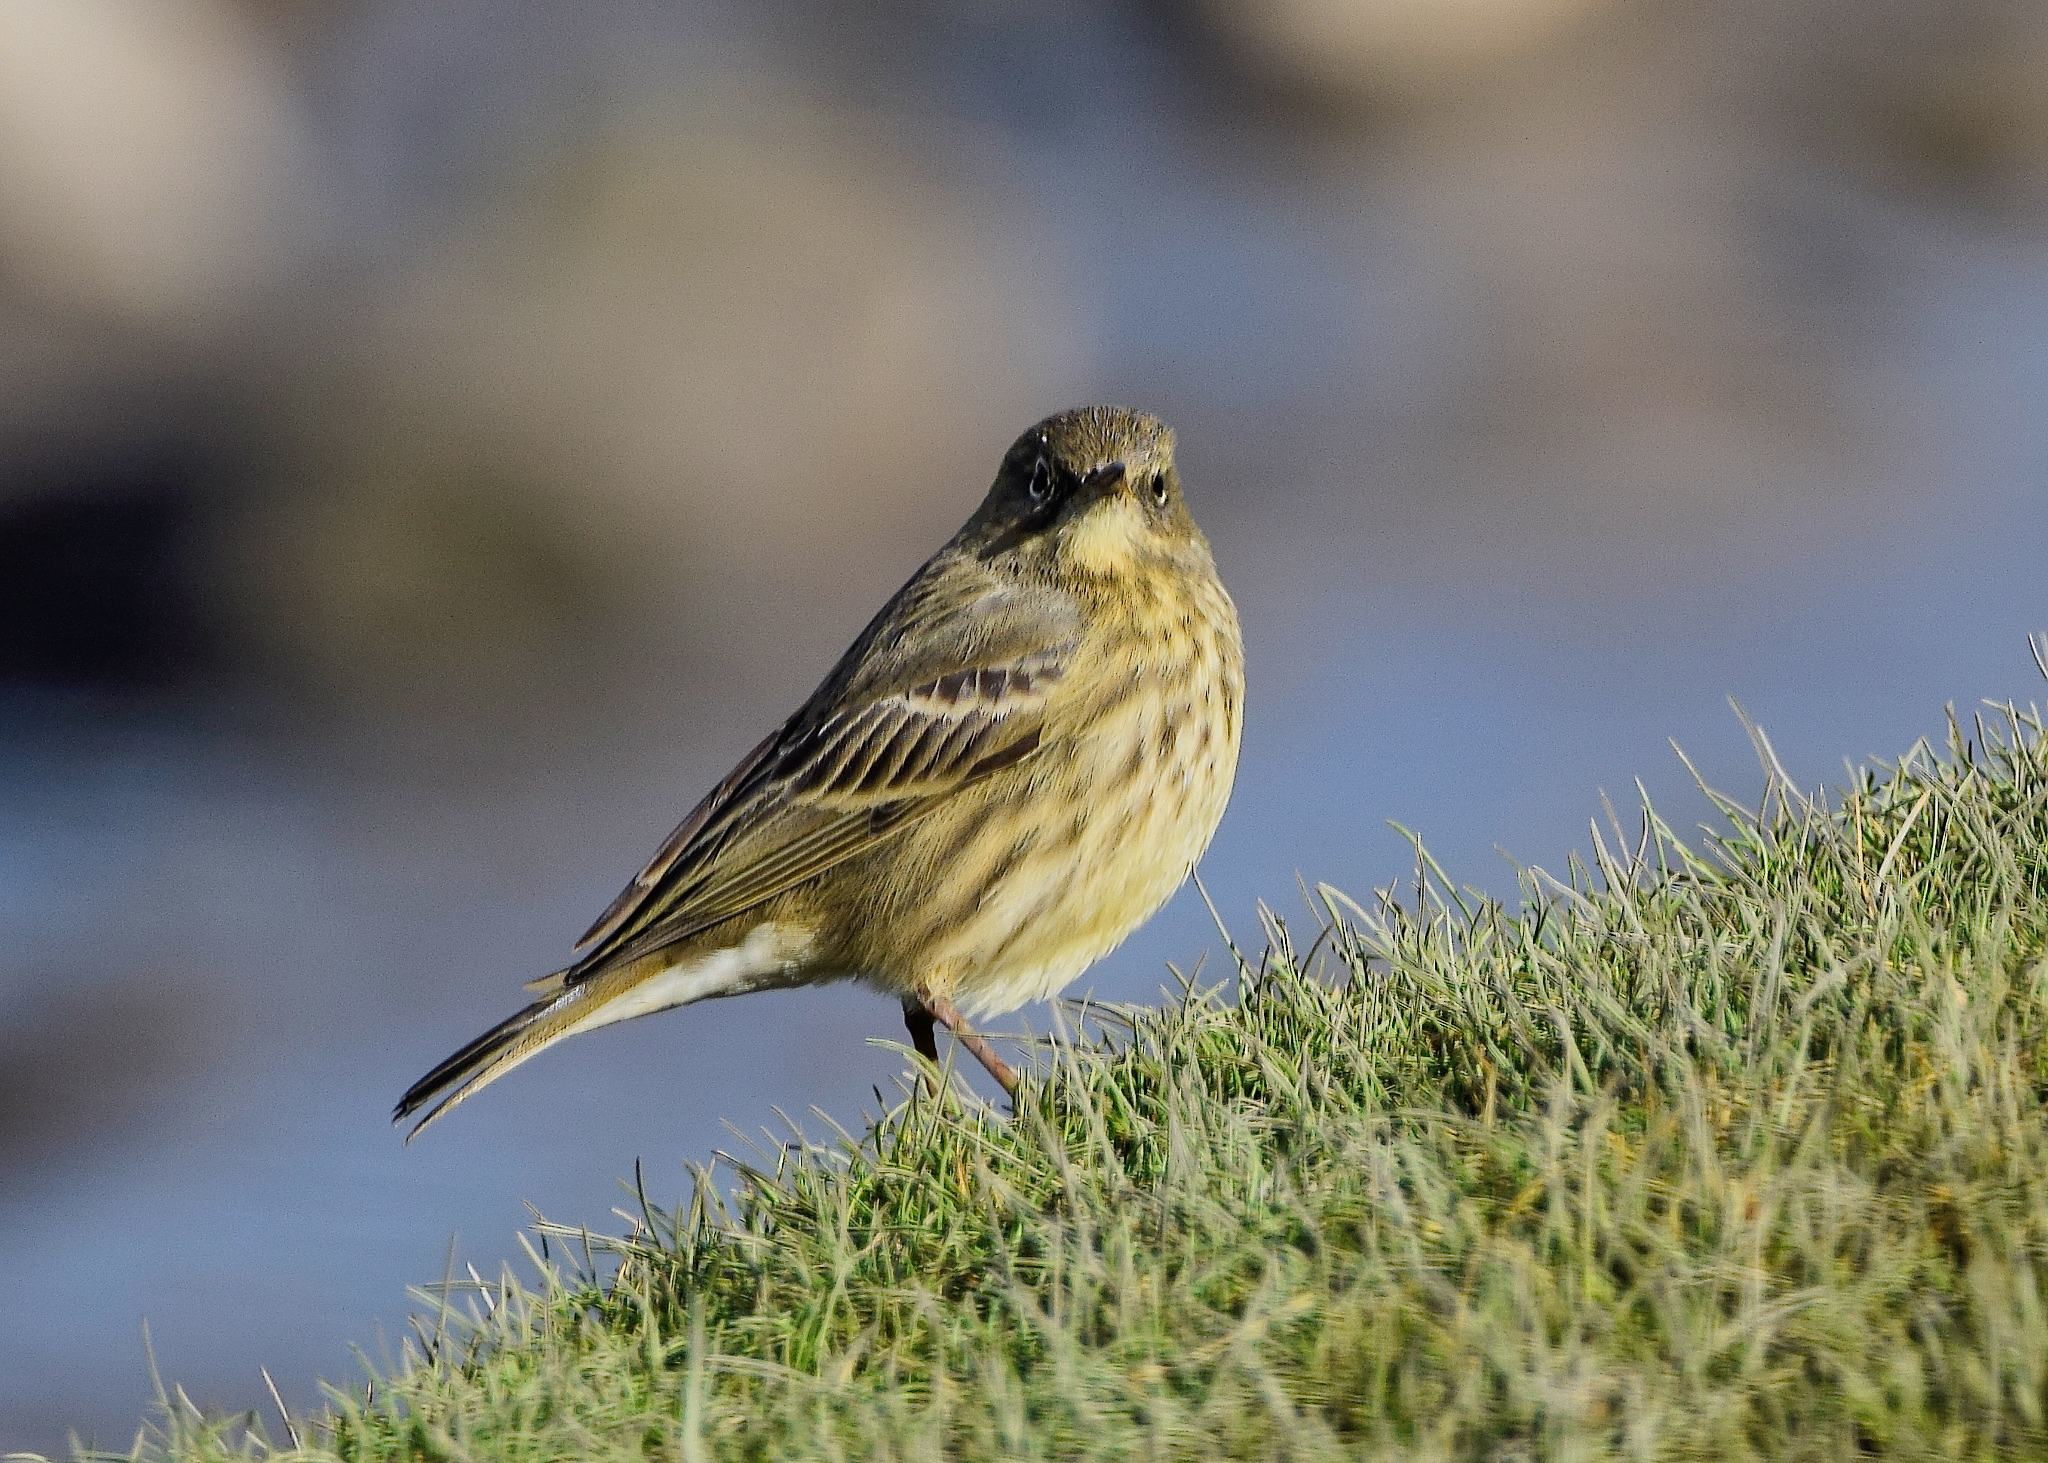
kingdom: Animalia
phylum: Chordata
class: Aves
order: Passeriformes
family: Motacillidae
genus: Anthus
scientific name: Anthus petrosus
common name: Eurasian rock pipit
